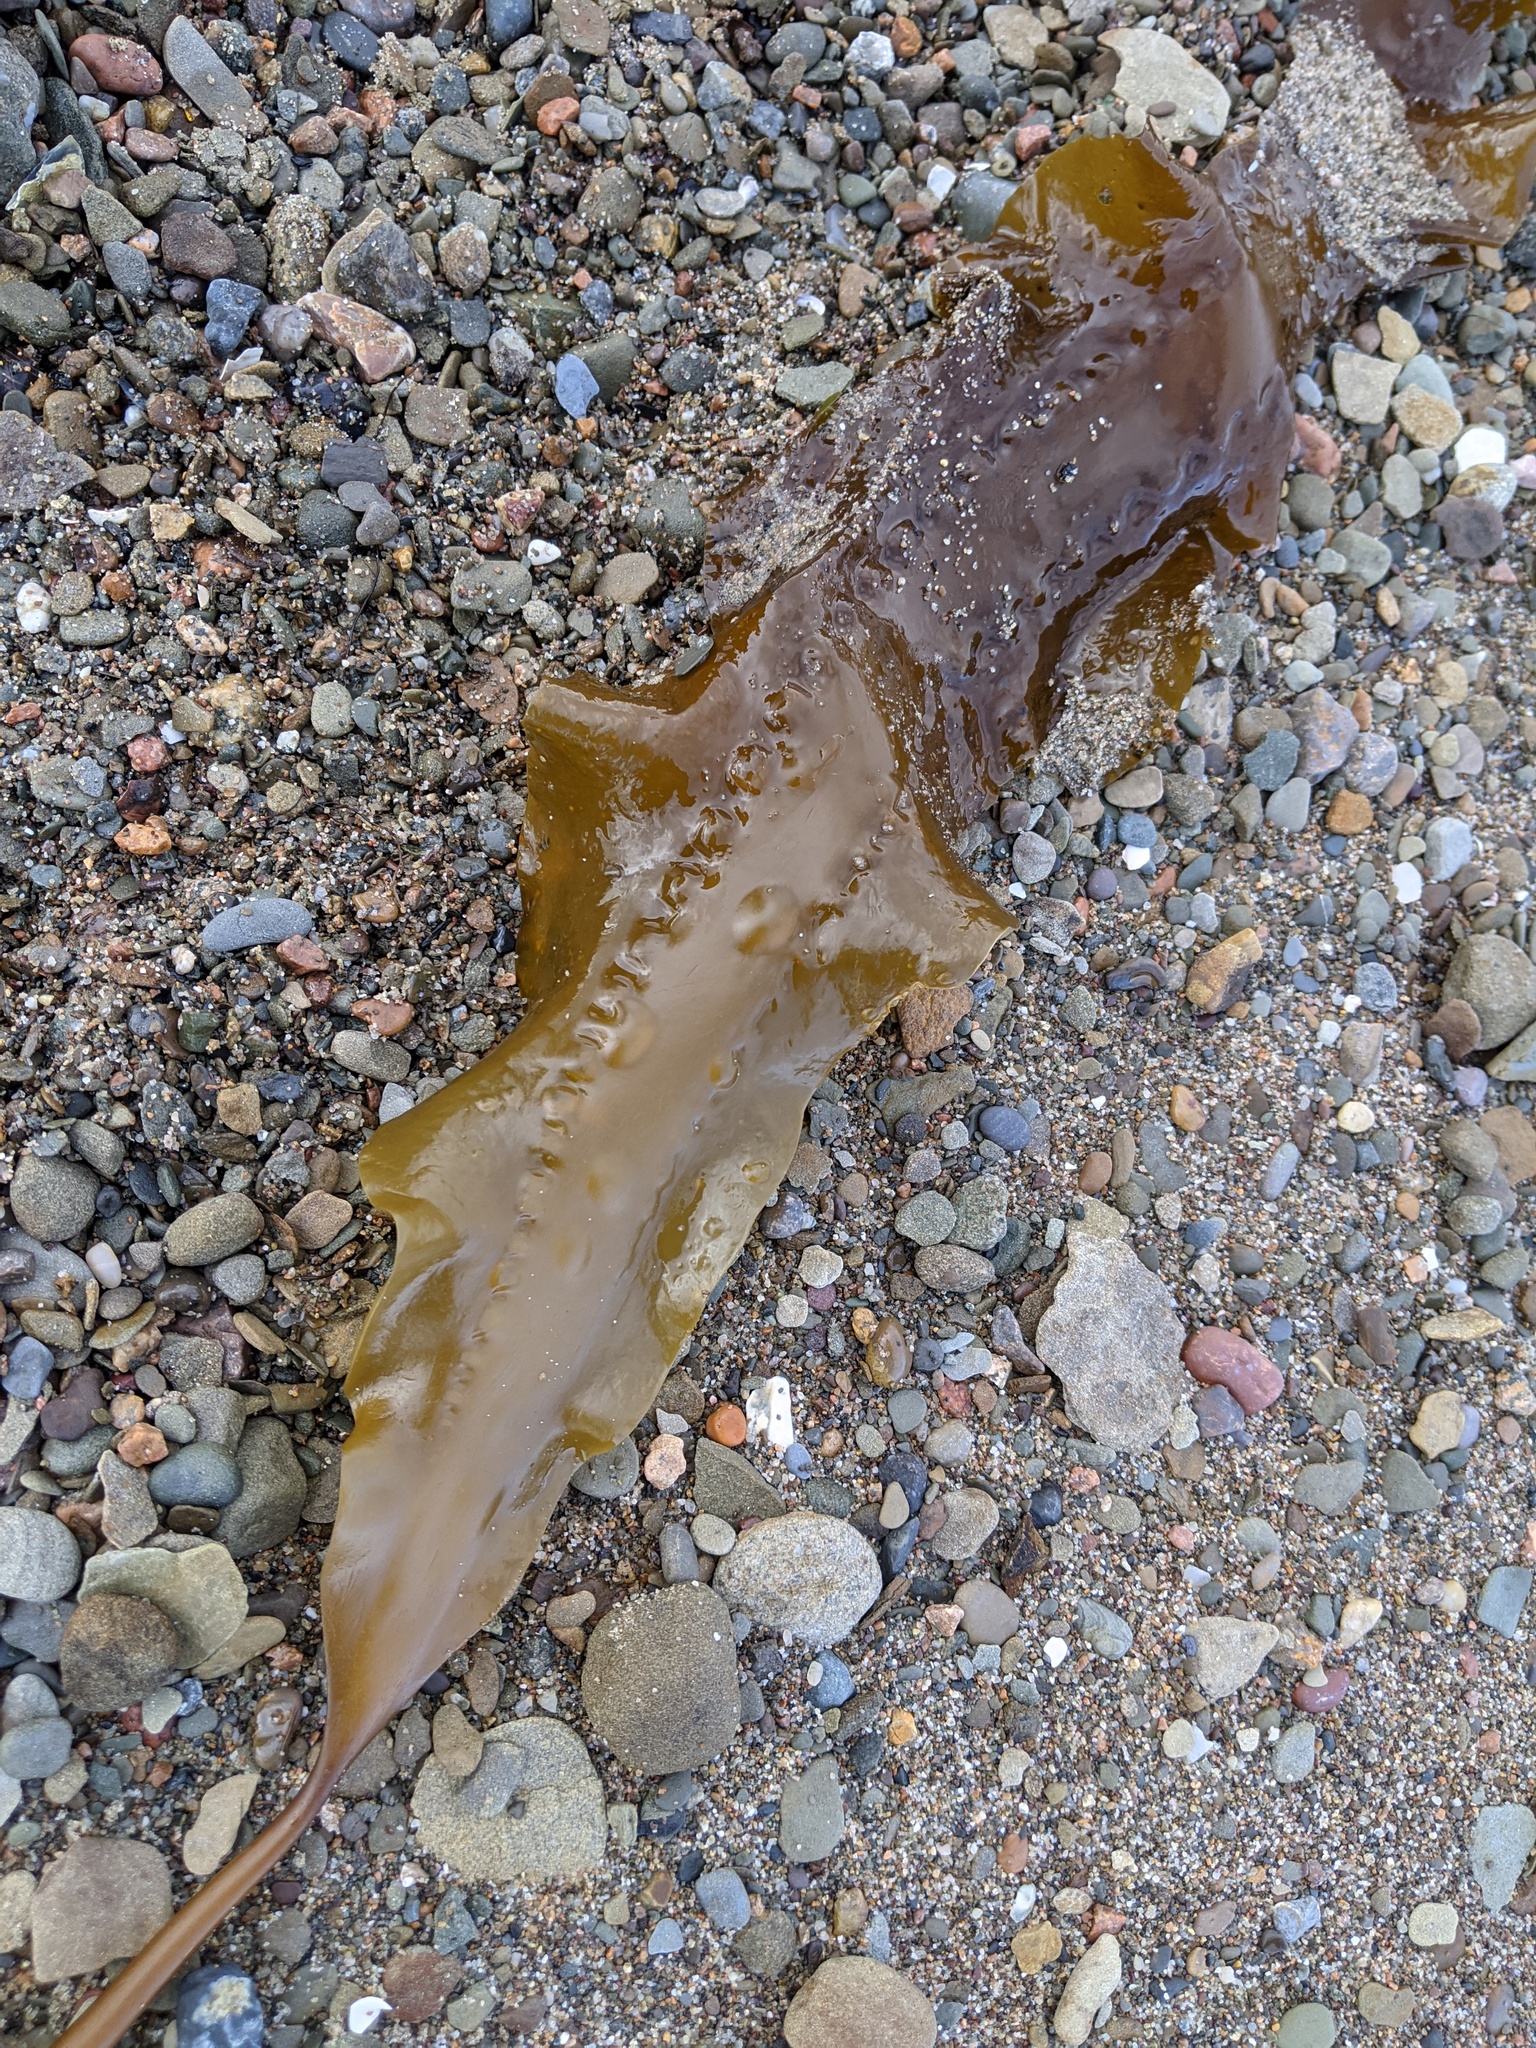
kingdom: Chromista
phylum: Ochrophyta
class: Phaeophyceae
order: Laminariales
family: Laminariaceae
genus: Saccharina
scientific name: Saccharina latissima
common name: Poor man's weather glass
